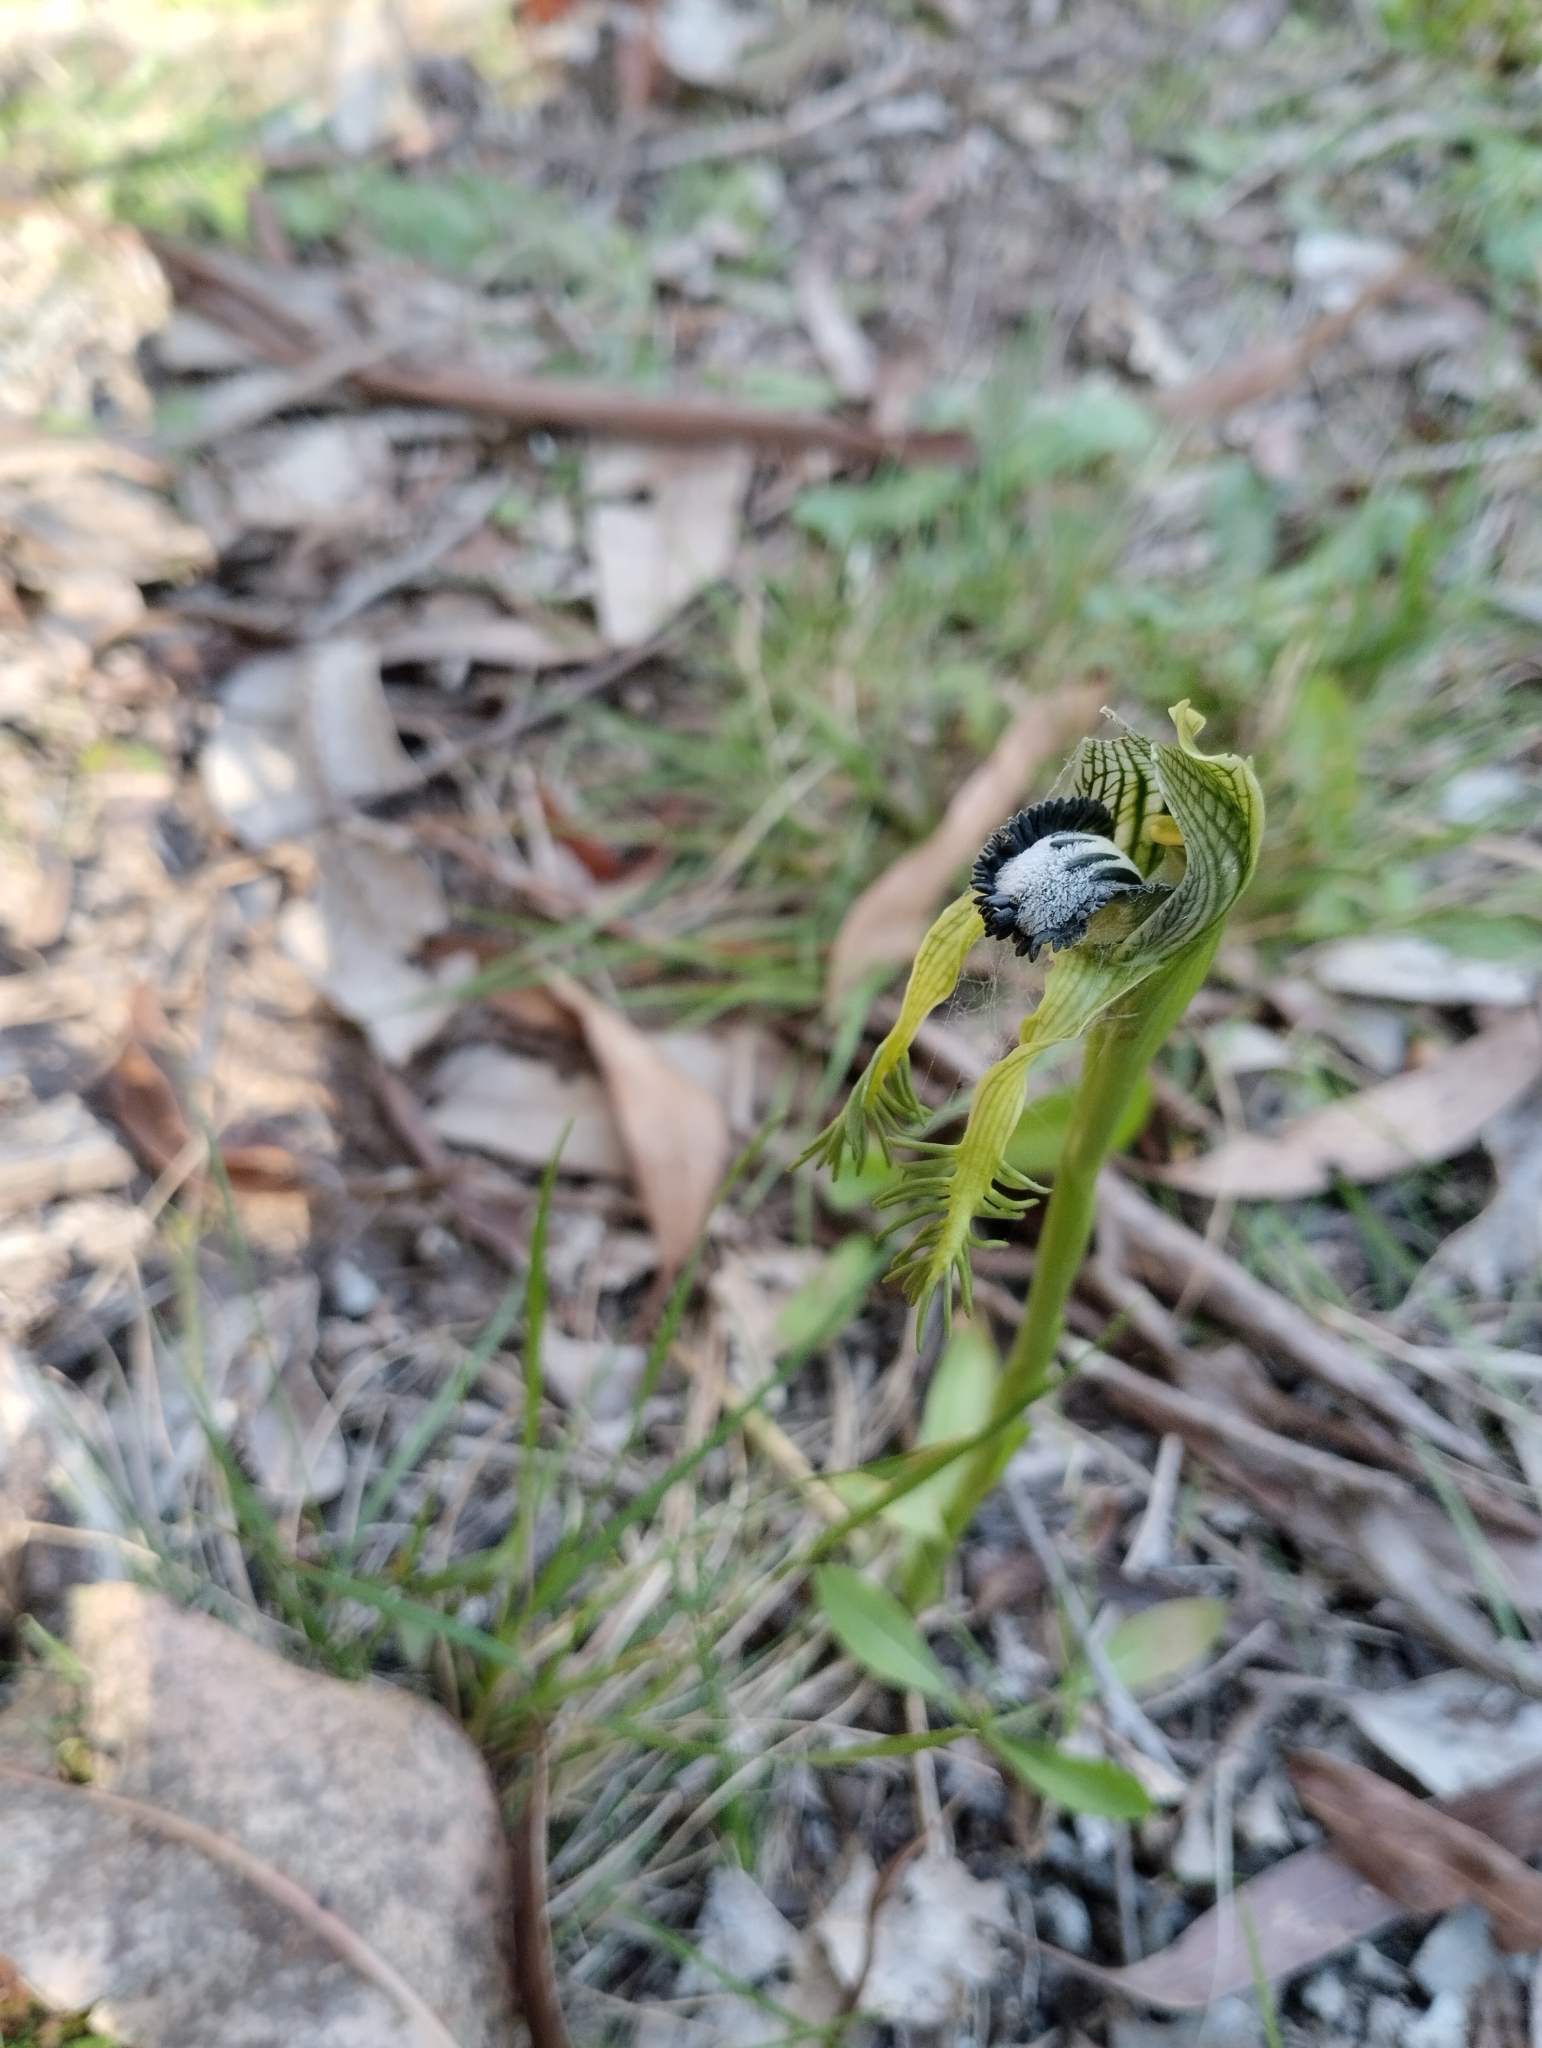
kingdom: Plantae
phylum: Tracheophyta
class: Liliopsida
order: Asparagales
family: Orchidaceae
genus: Bipinnula
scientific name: Bipinnula montana
